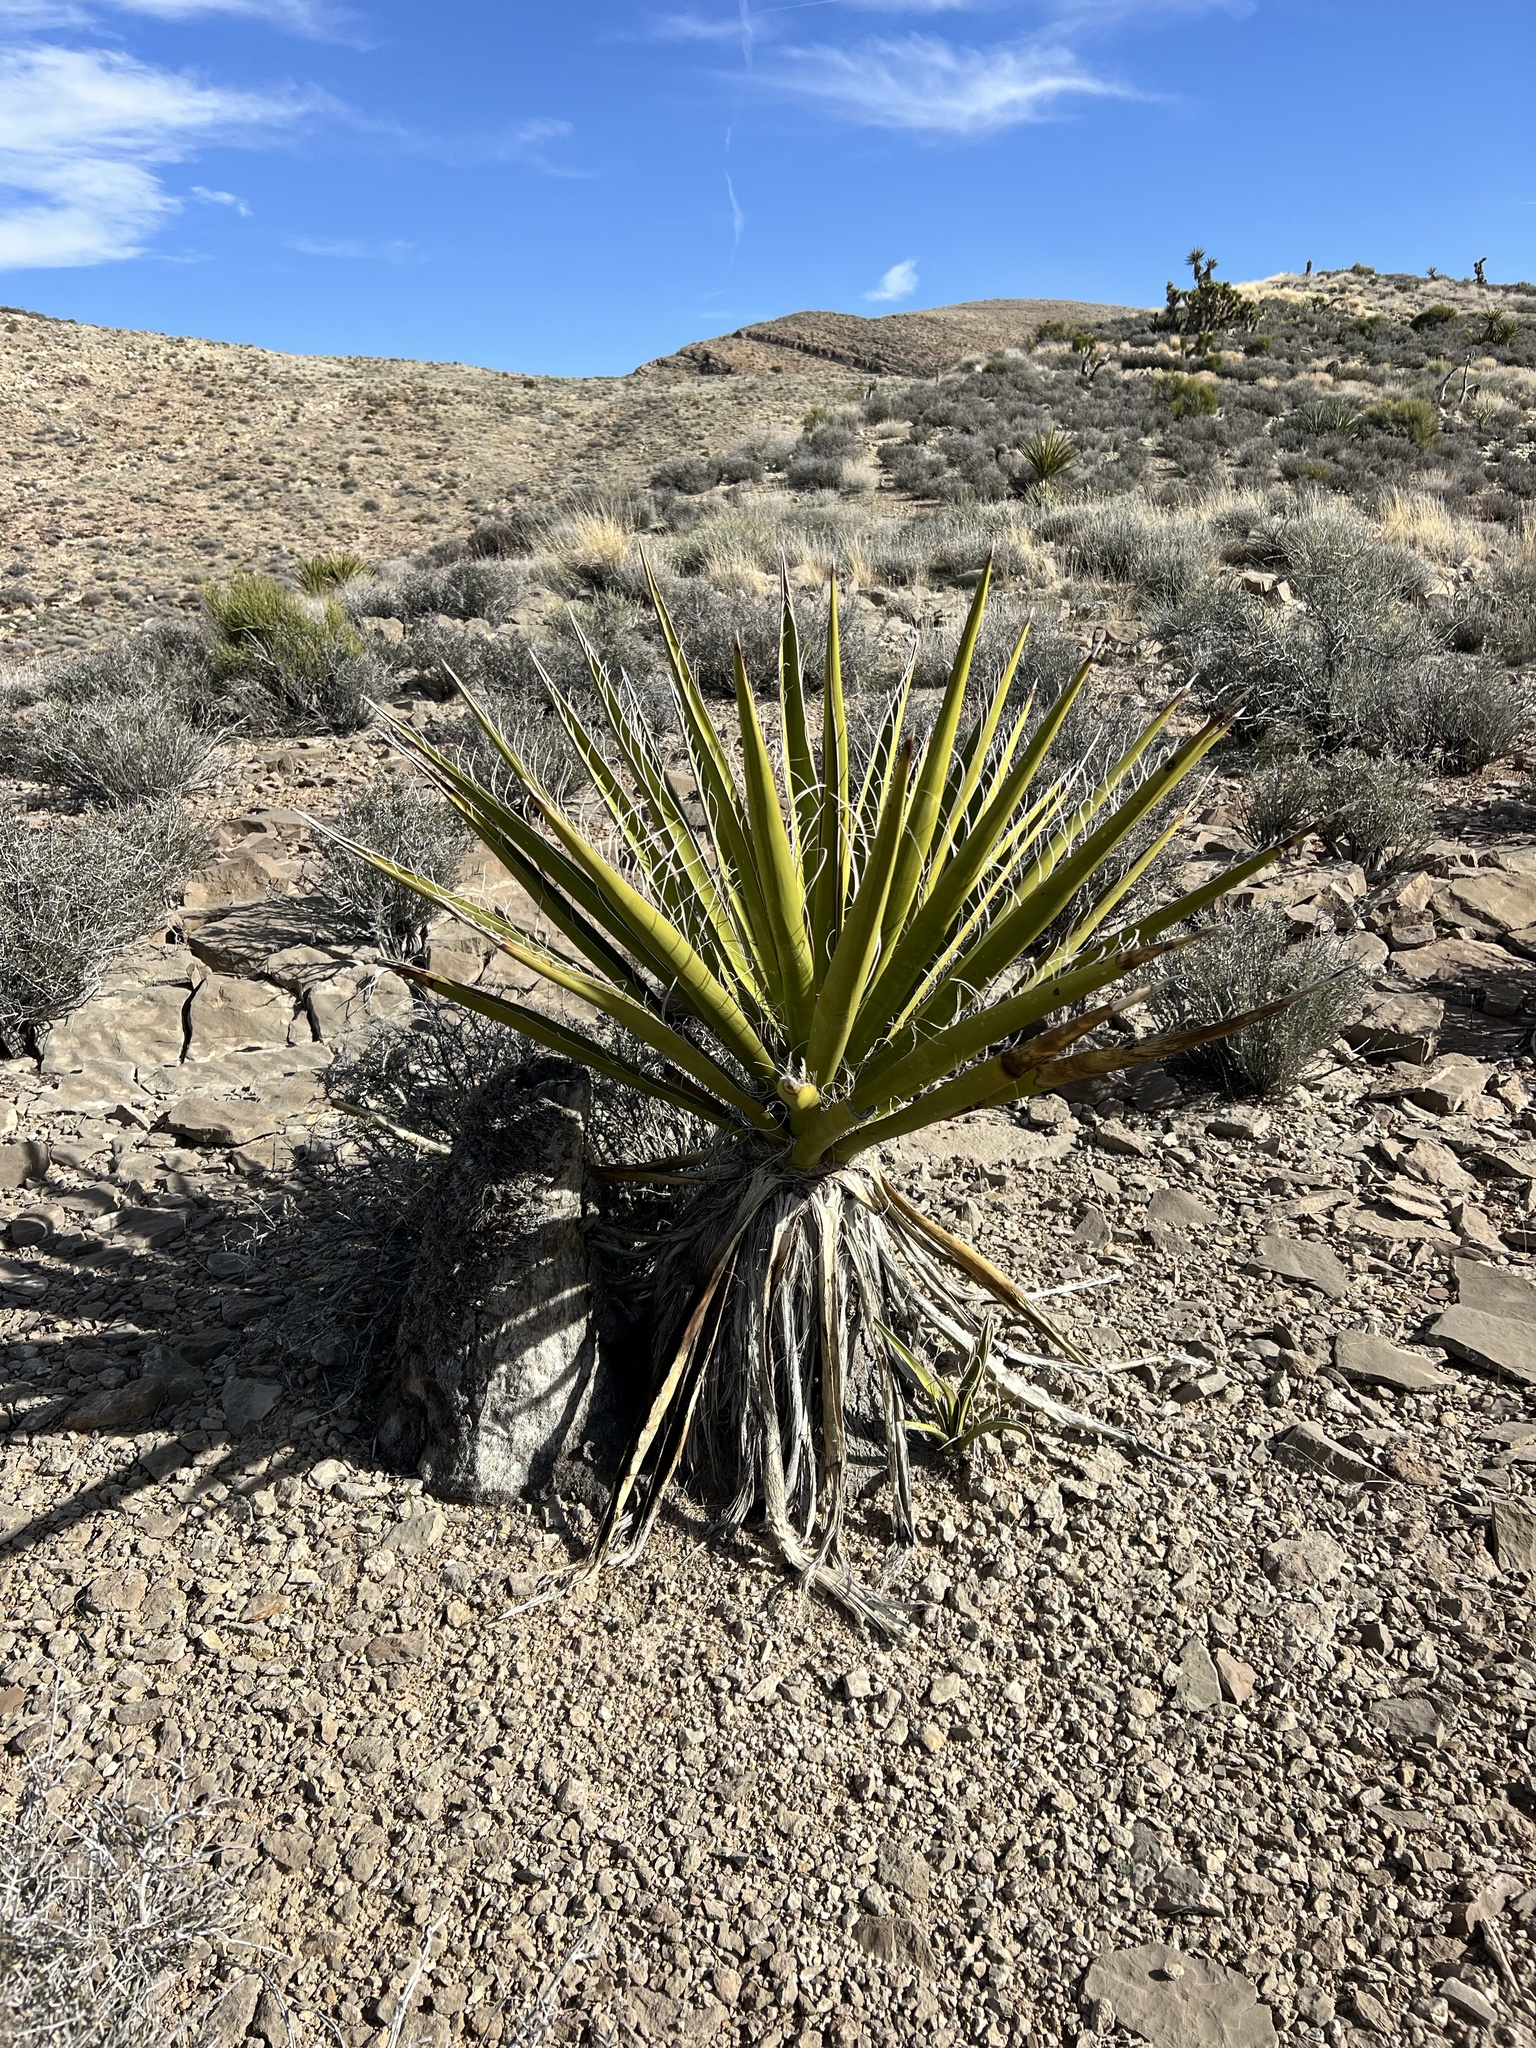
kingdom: Plantae
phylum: Tracheophyta
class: Liliopsida
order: Asparagales
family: Asparagaceae
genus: Yucca
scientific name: Yucca schidigera
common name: Mojave yucca
